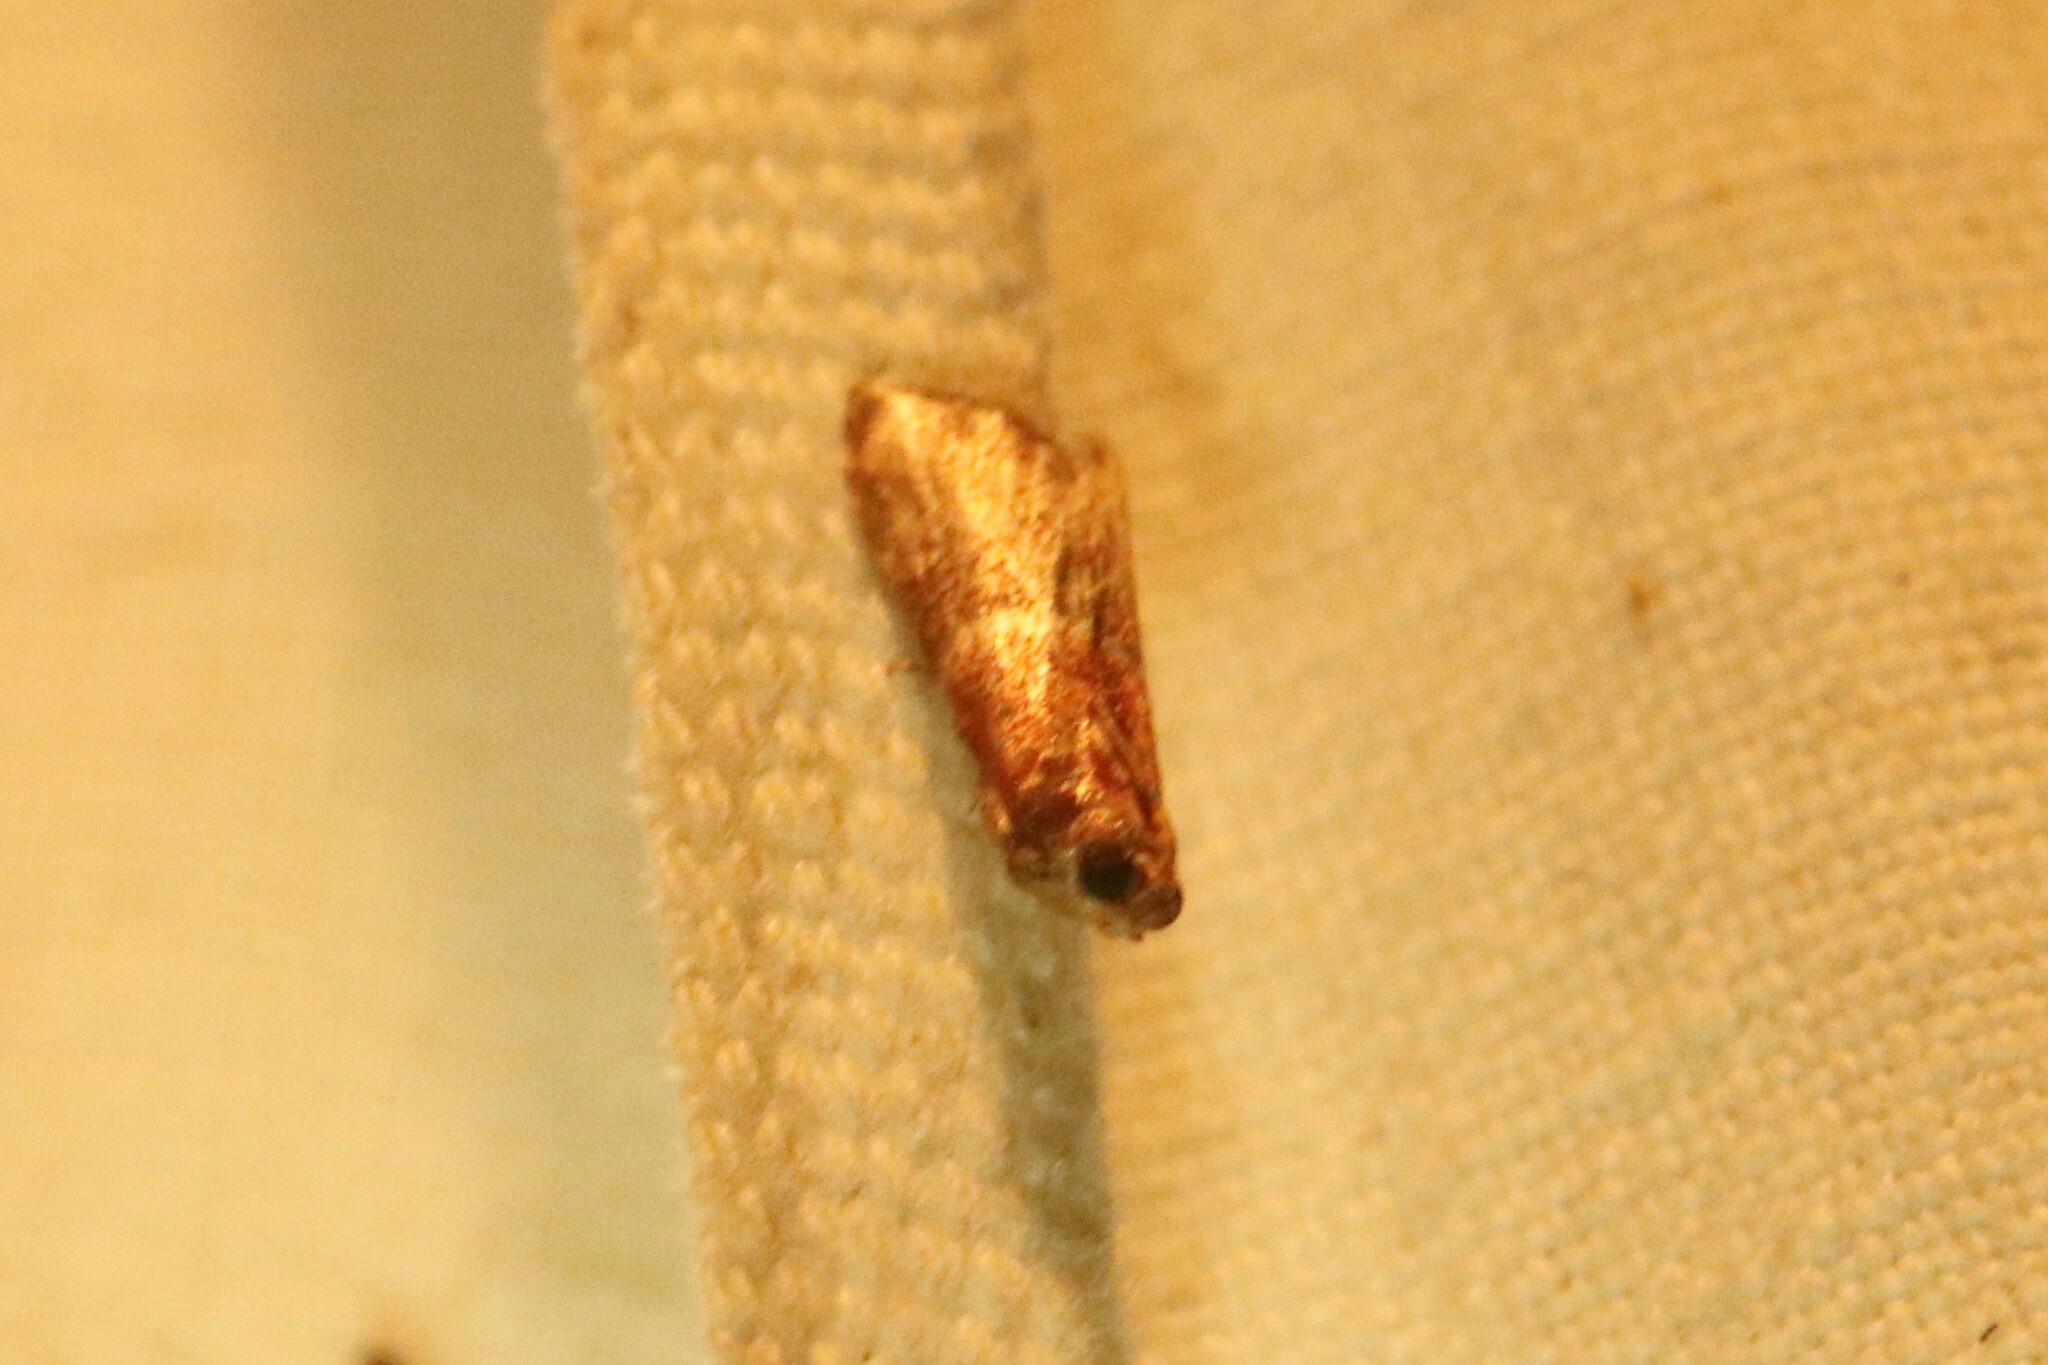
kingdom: Animalia
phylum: Arthropoda
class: Insecta
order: Lepidoptera
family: Pyralidae
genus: Eulogia
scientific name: Eulogia ochrifrontella
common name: Broad-banded eulogia moth
